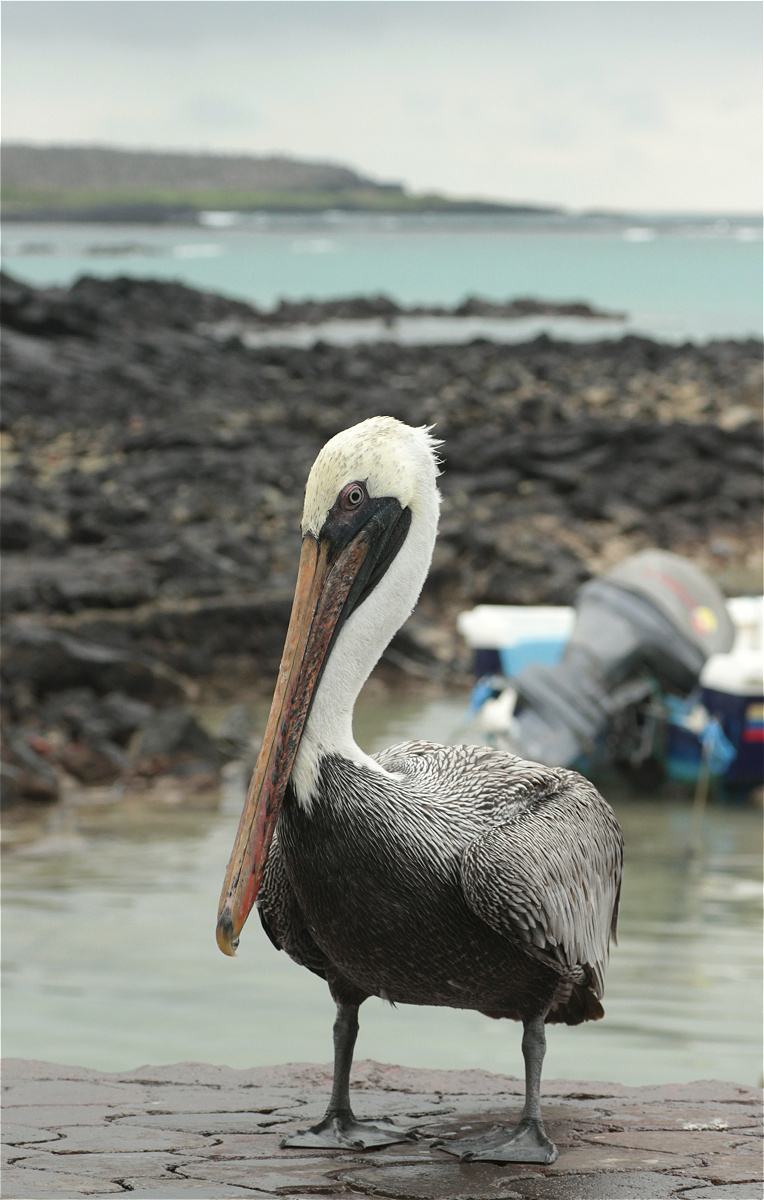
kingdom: Animalia
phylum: Chordata
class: Aves
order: Pelecaniformes
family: Pelecanidae
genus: Pelecanus
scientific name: Pelecanus occidentalis
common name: Brown pelican
